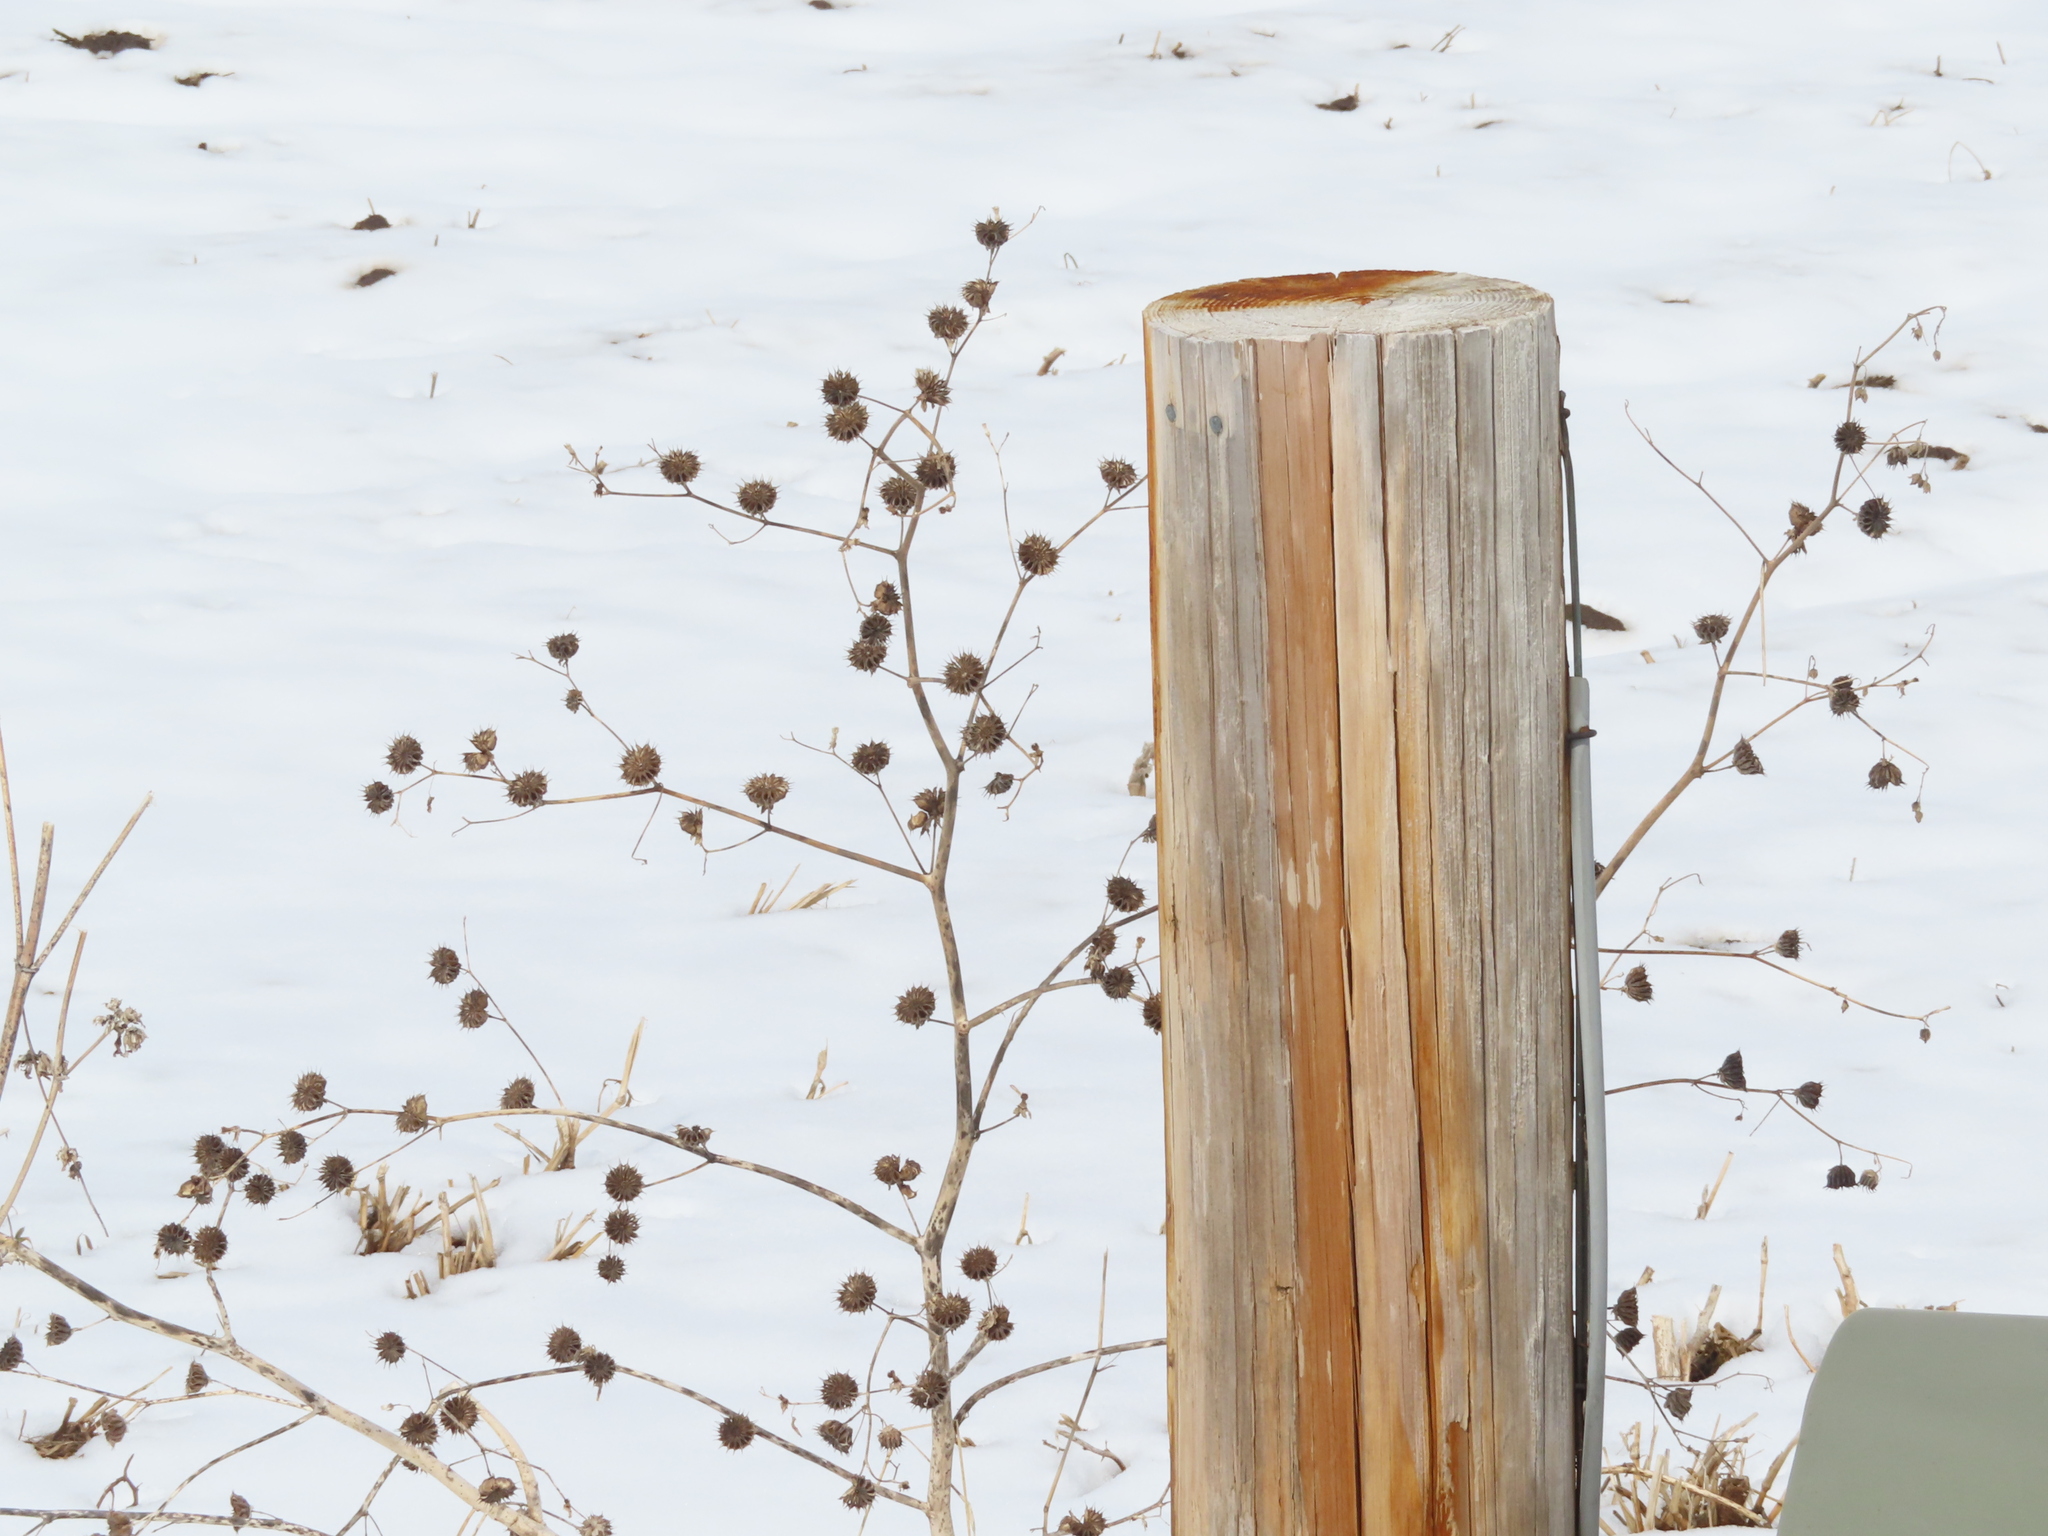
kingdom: Plantae
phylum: Tracheophyta
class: Magnoliopsida
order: Malvales
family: Malvaceae
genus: Abutilon
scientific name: Abutilon theophrasti
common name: Velvetleaf
